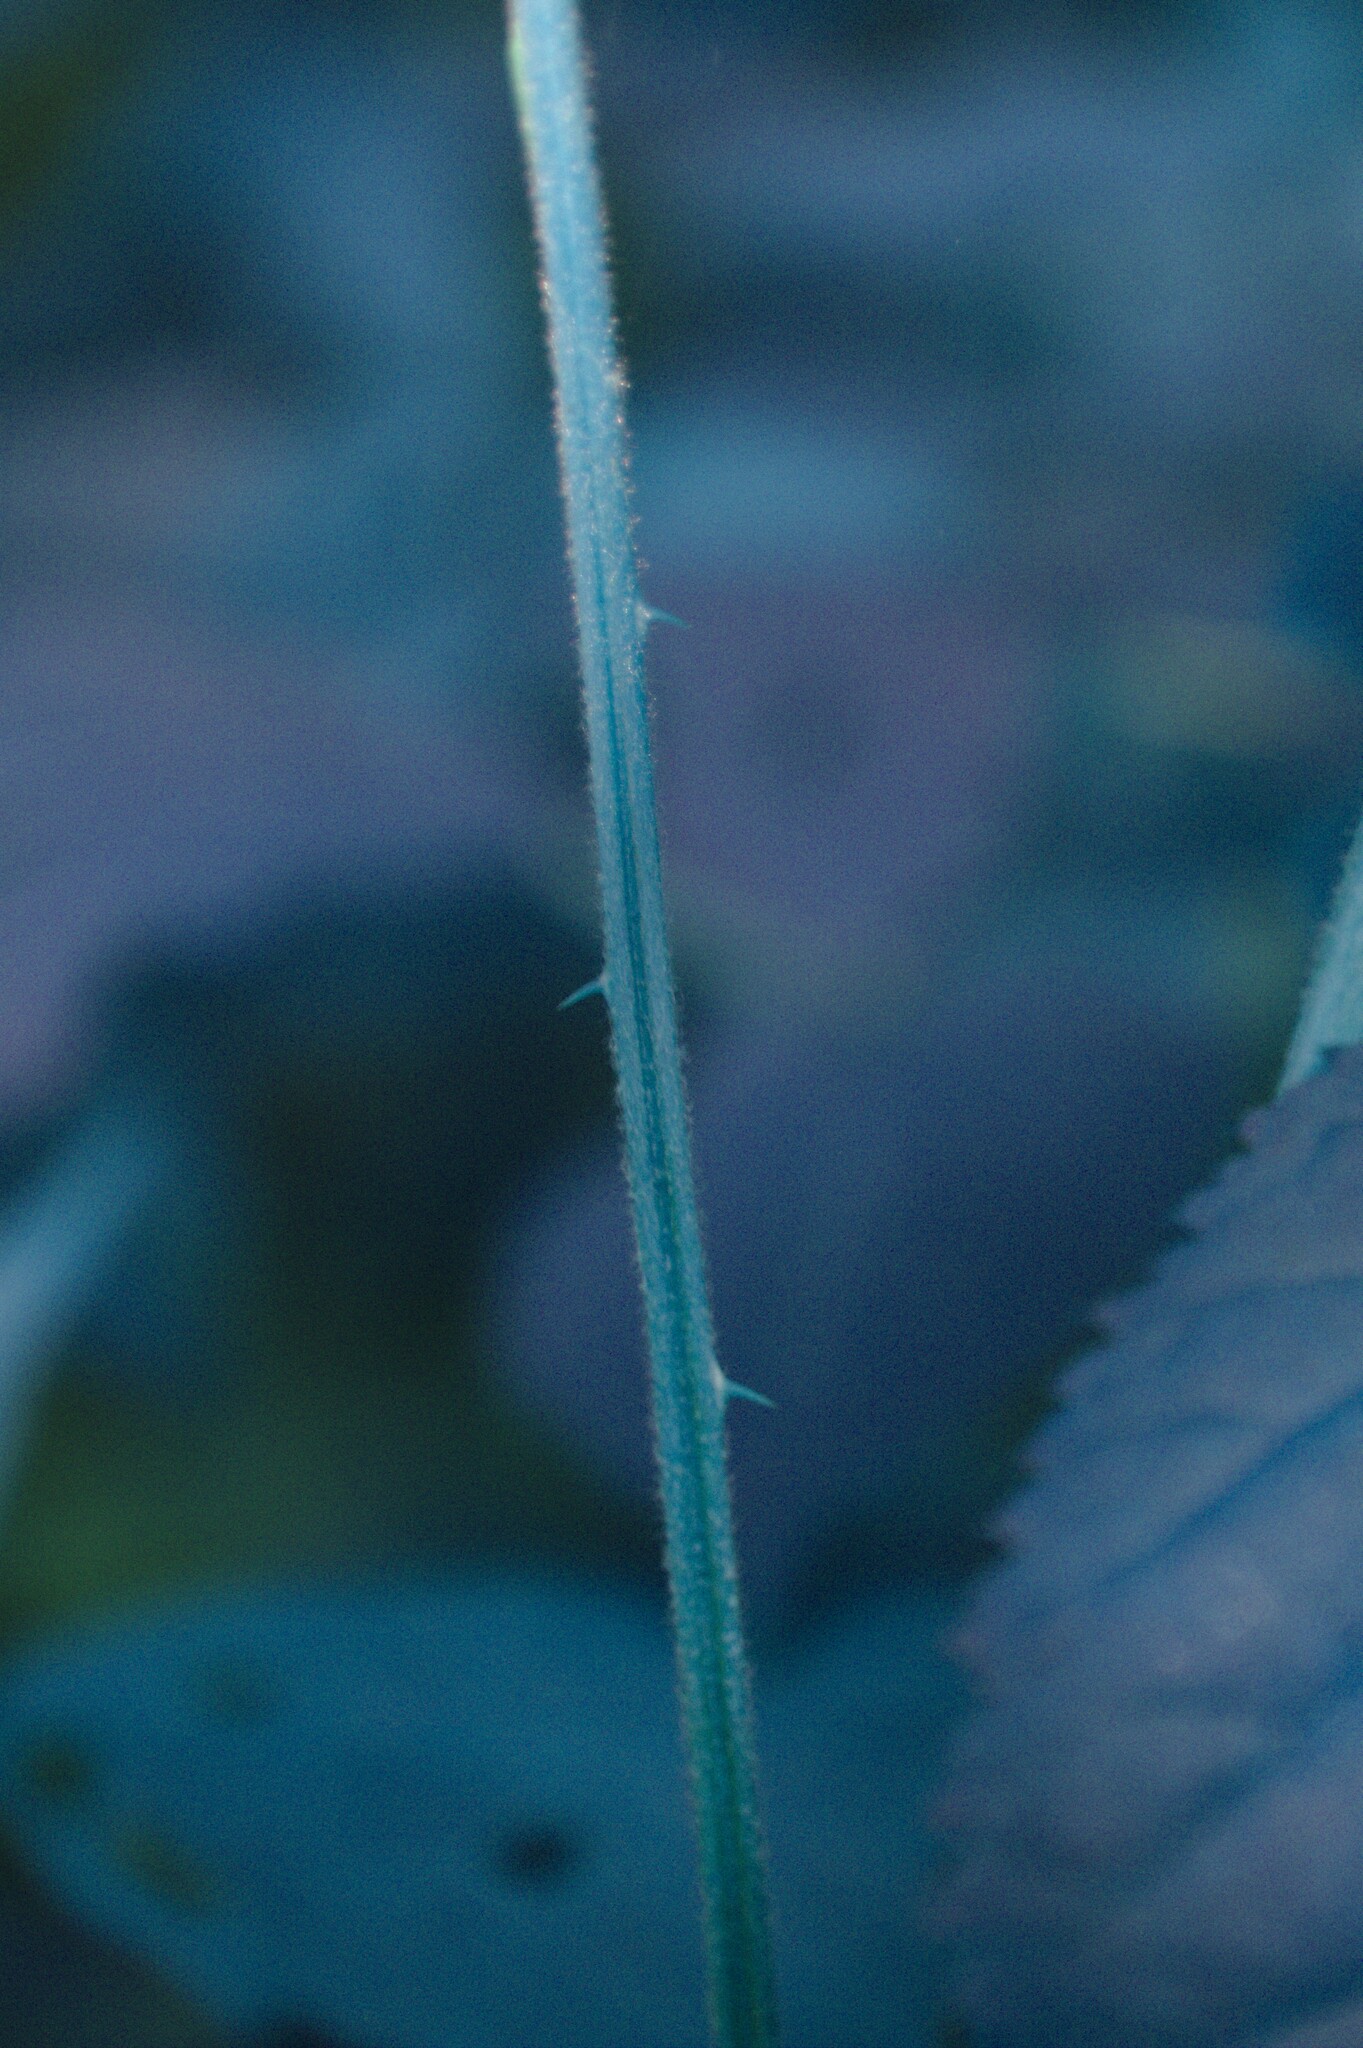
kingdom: Plantae
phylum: Tracheophyta
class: Magnoliopsida
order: Rosales
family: Rosaceae
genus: Rubus
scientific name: Rubus canadensis
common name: Smooth blackberry
